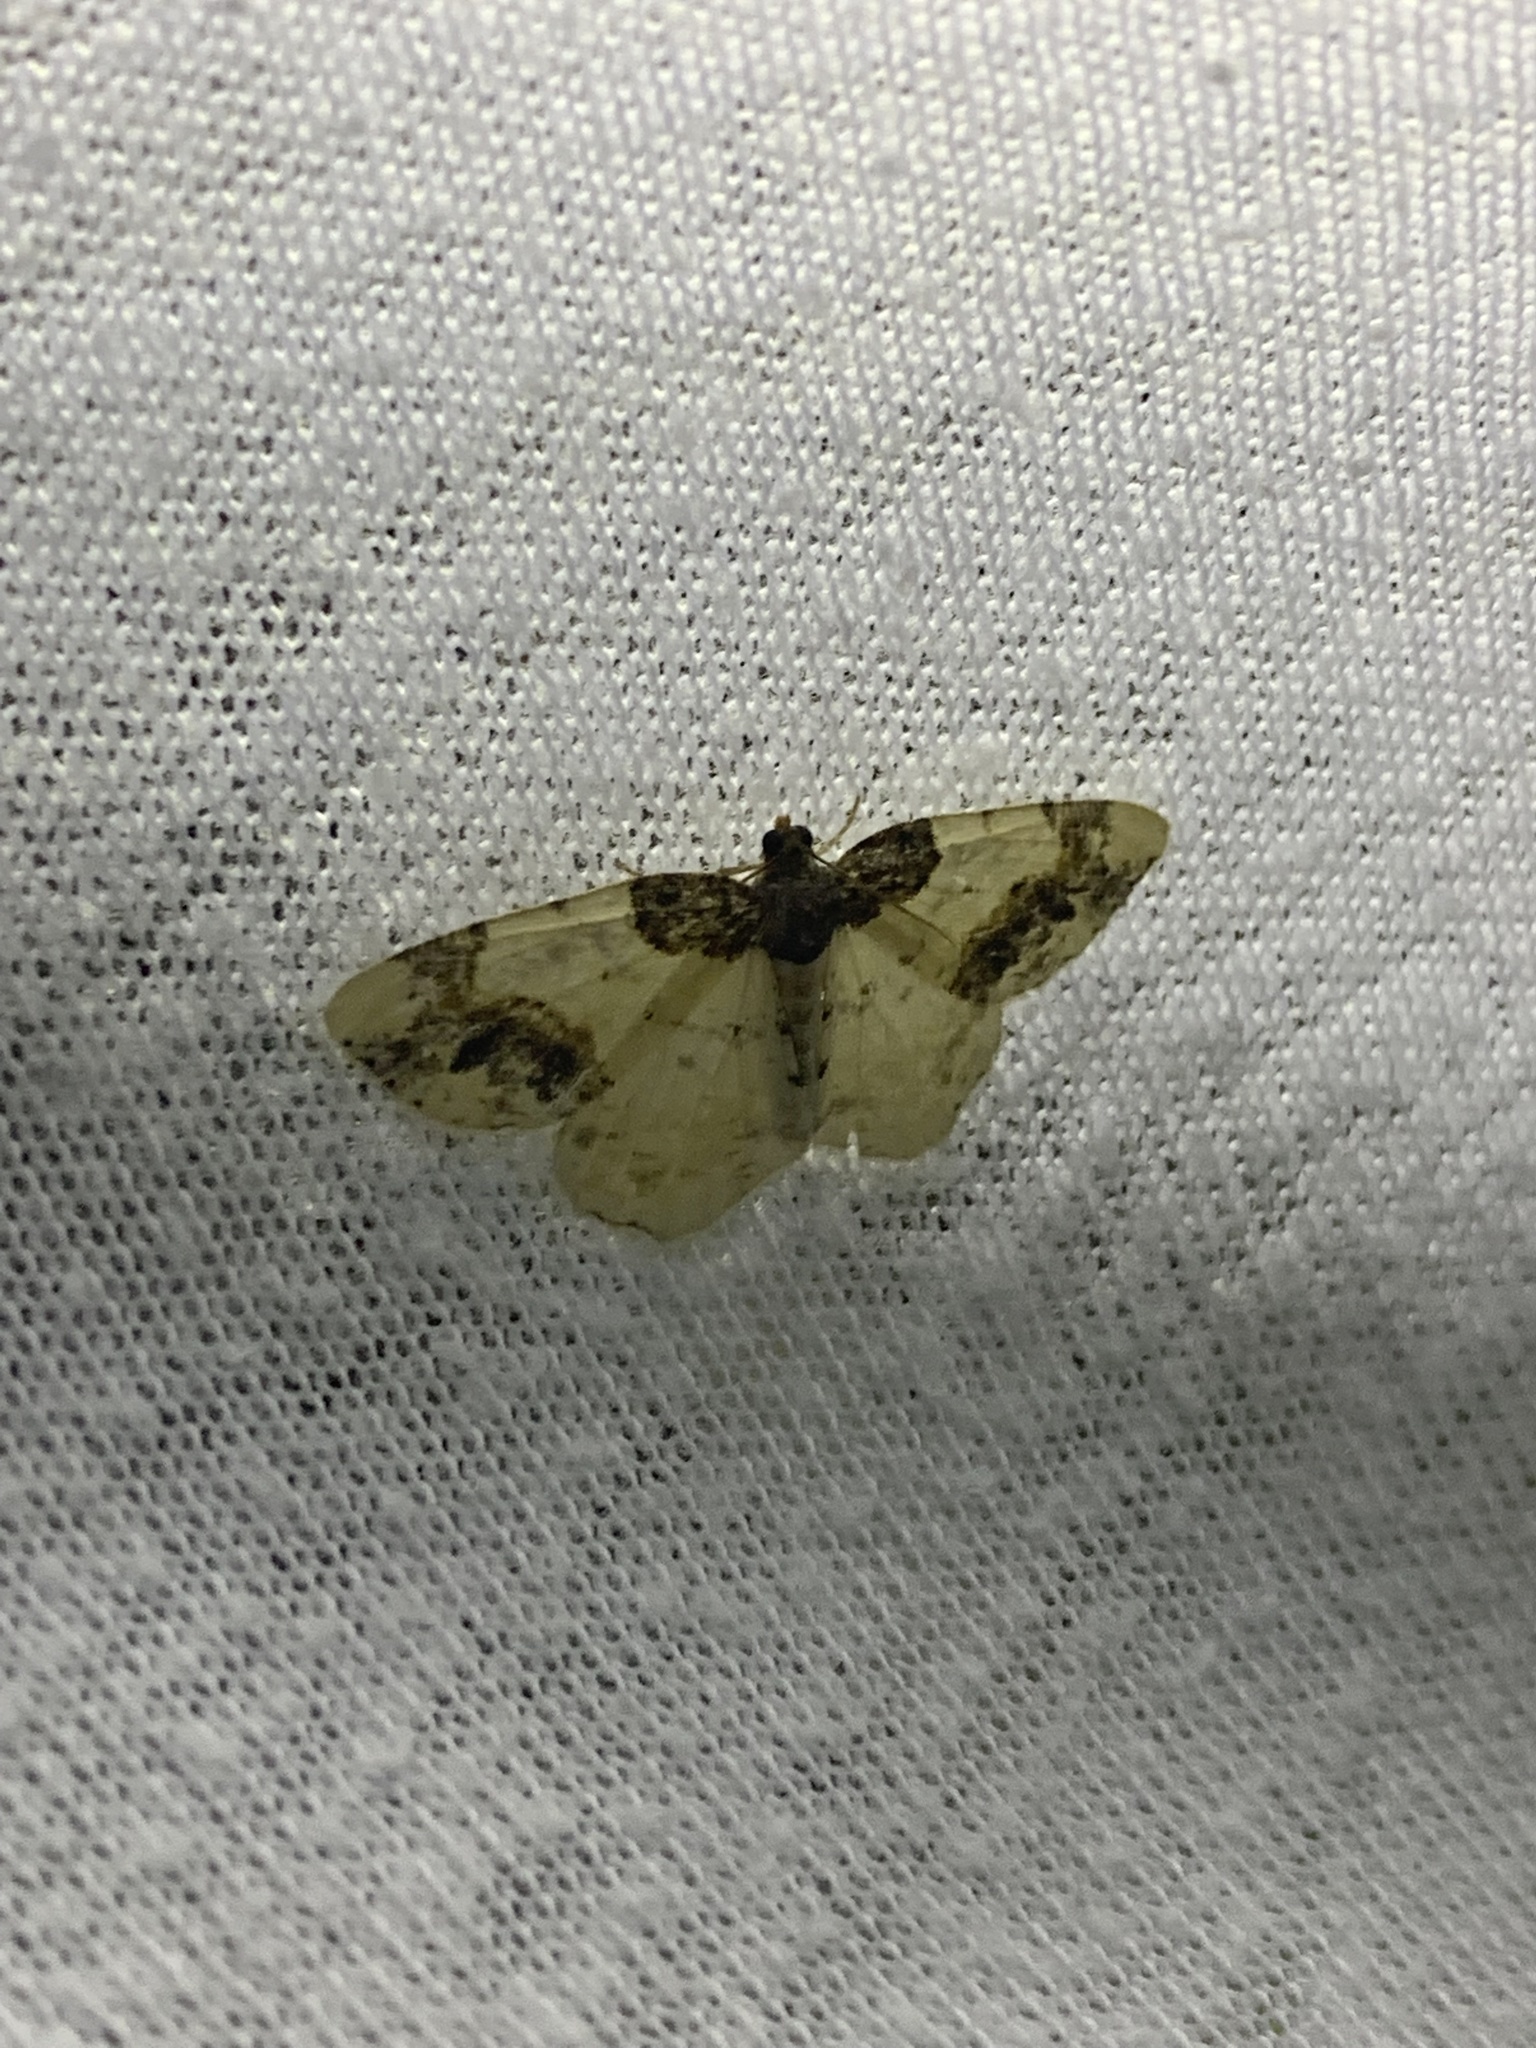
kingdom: Animalia
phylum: Arthropoda
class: Insecta
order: Lepidoptera
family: Geometridae
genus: Ligdia
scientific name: Ligdia adustata
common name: Scorched carpet
